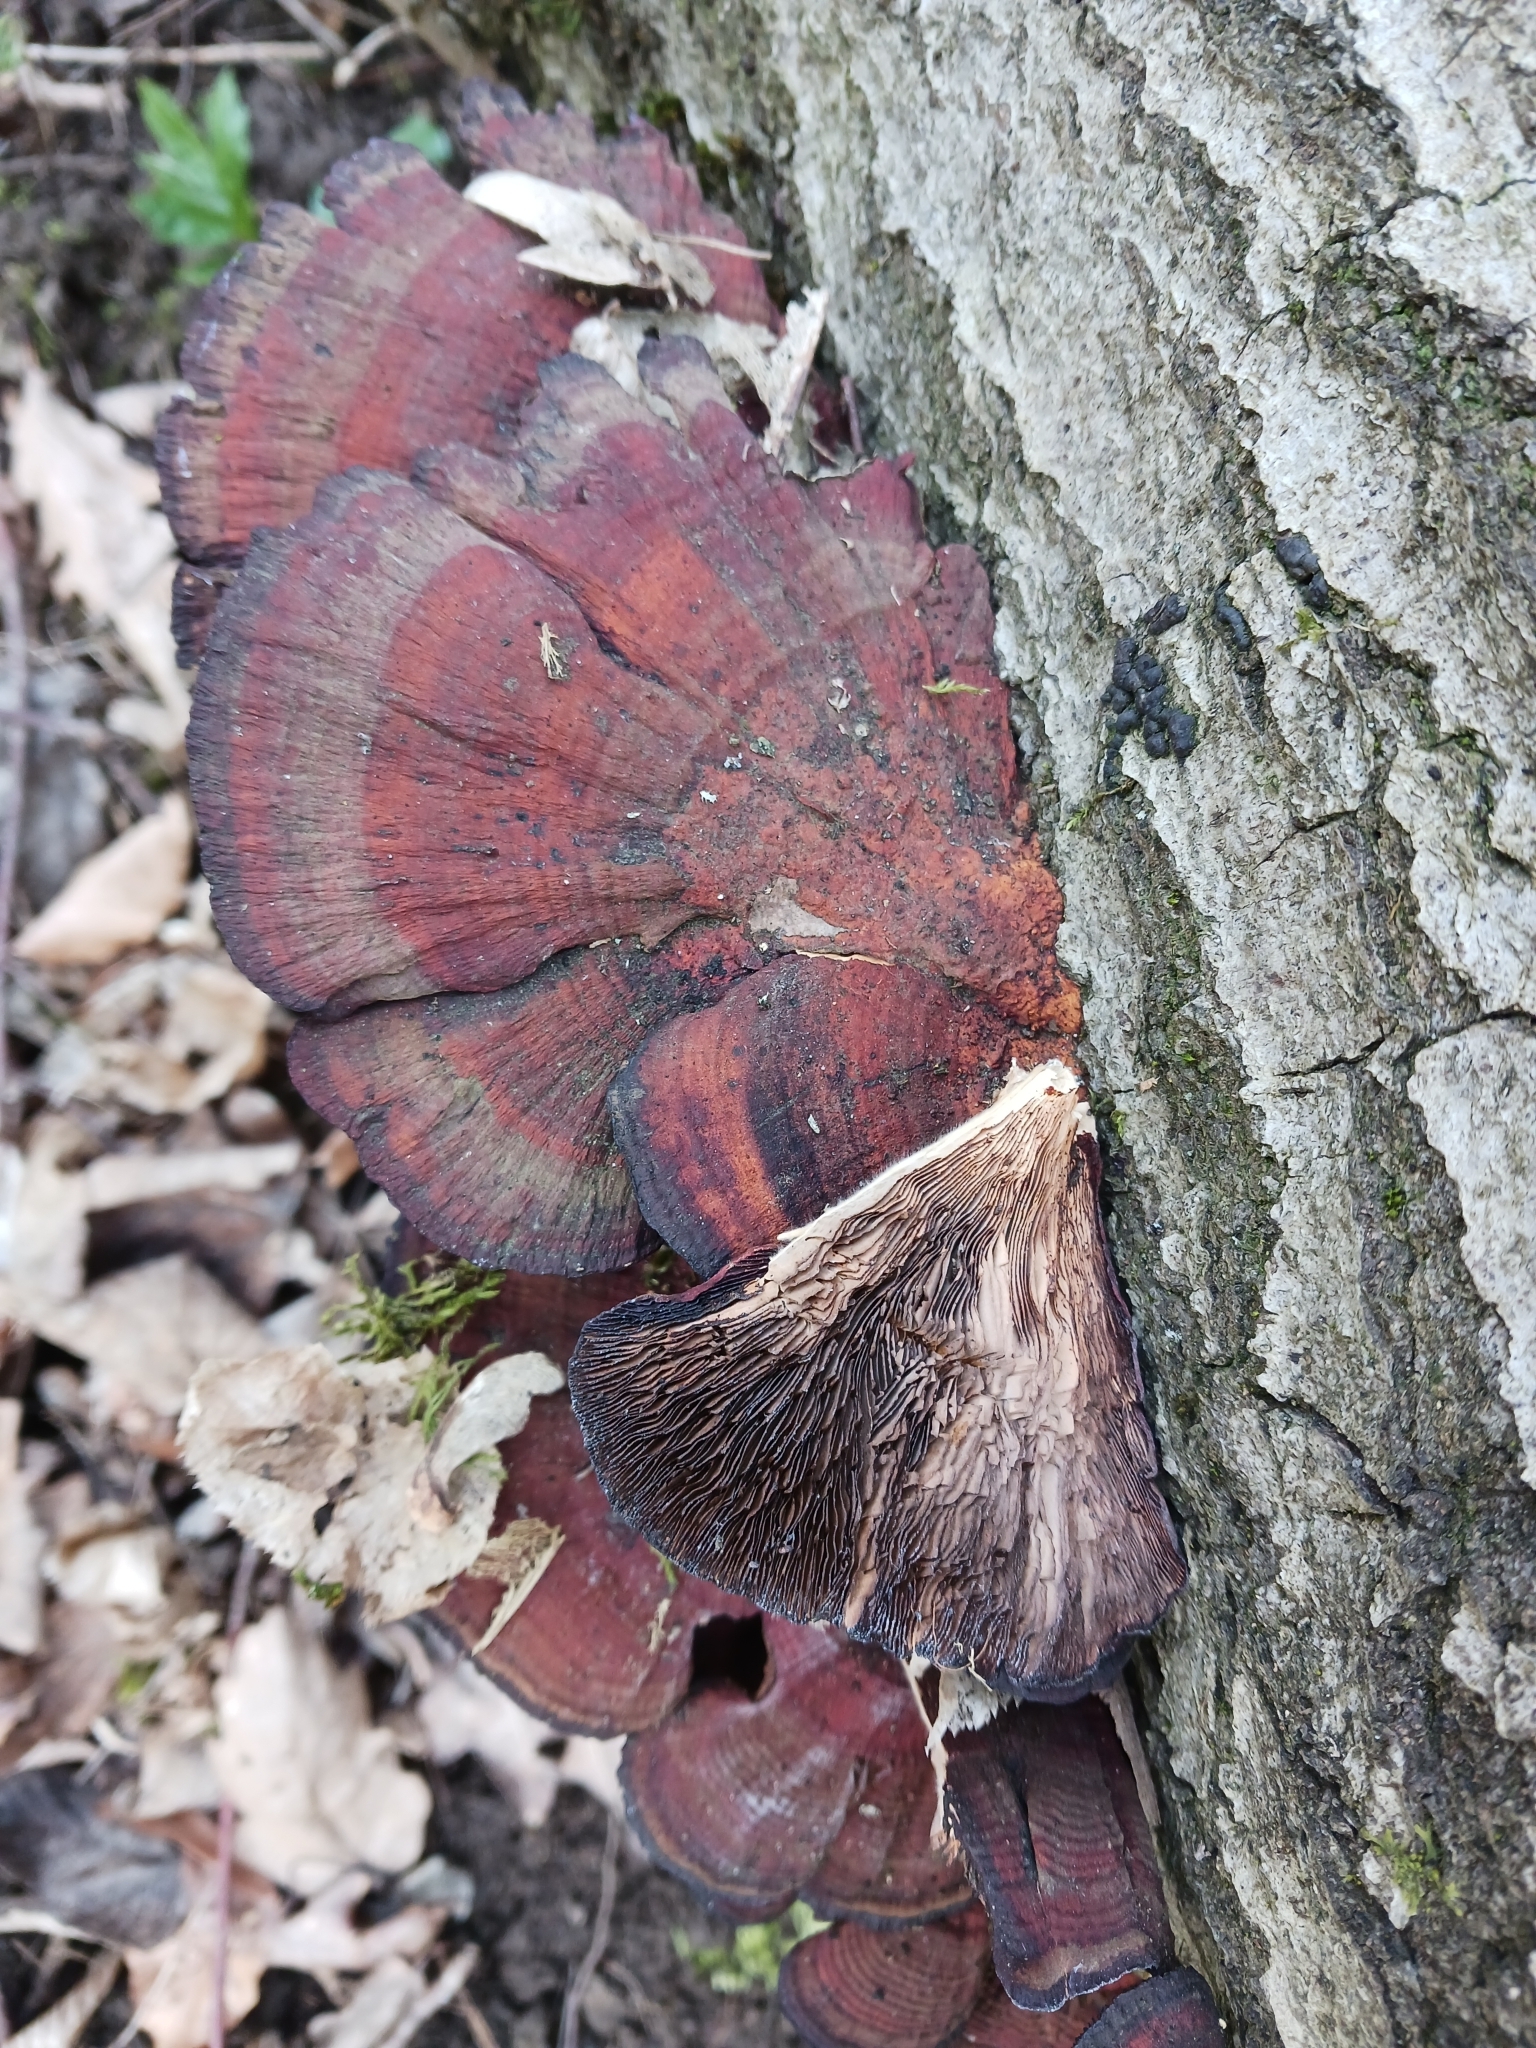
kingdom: Fungi
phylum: Basidiomycota
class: Agaricomycetes
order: Polyporales
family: Polyporaceae
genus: Daedaleopsis
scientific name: Daedaleopsis tricolor
